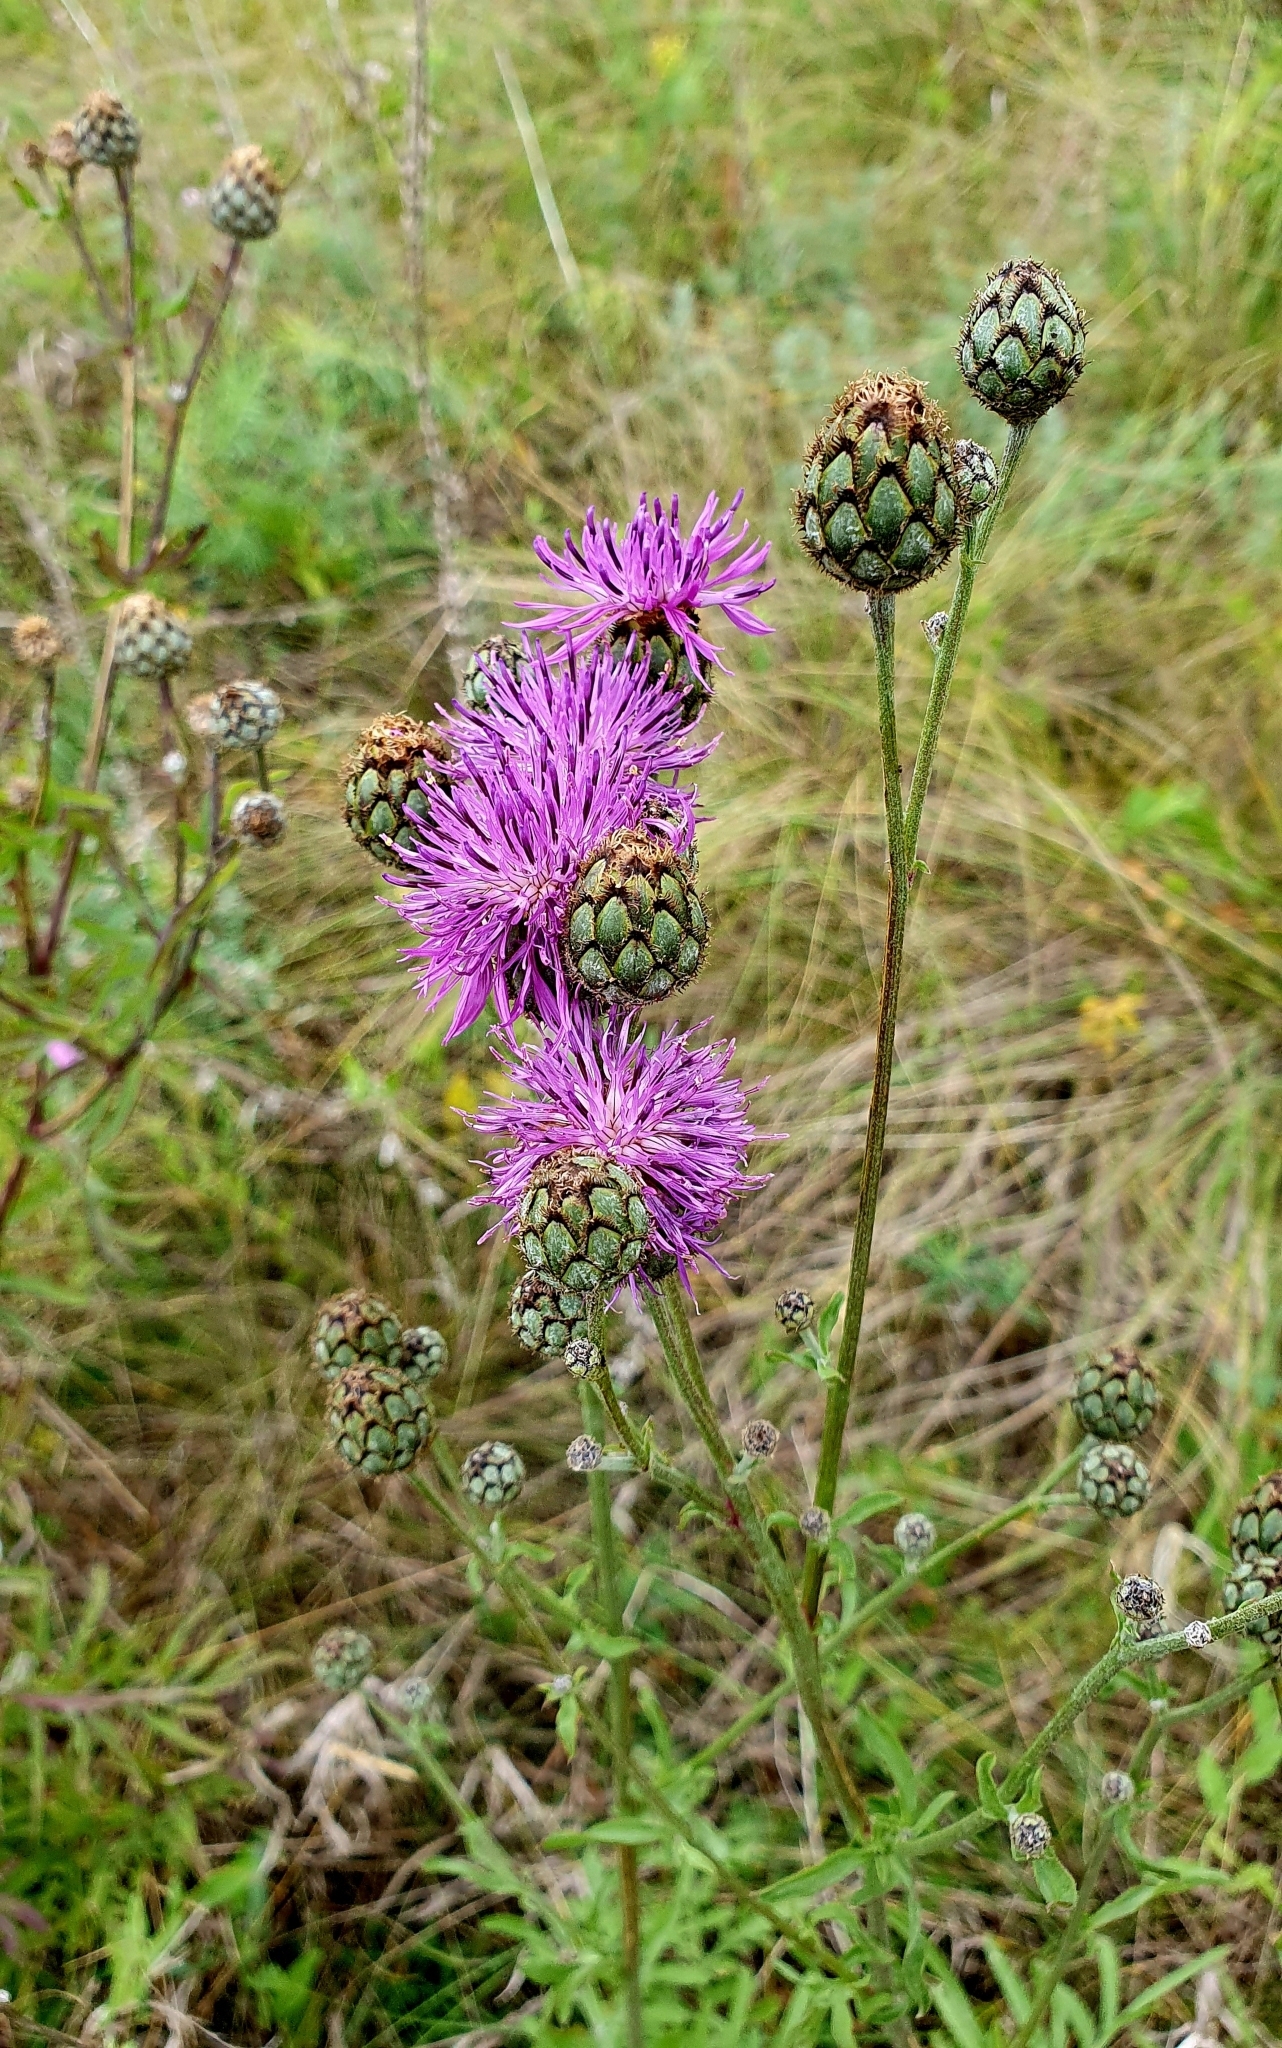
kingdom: Plantae
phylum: Tracheophyta
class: Magnoliopsida
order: Asterales
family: Asteraceae
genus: Centaurea
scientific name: Centaurea scabiosa
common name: Greater knapweed
